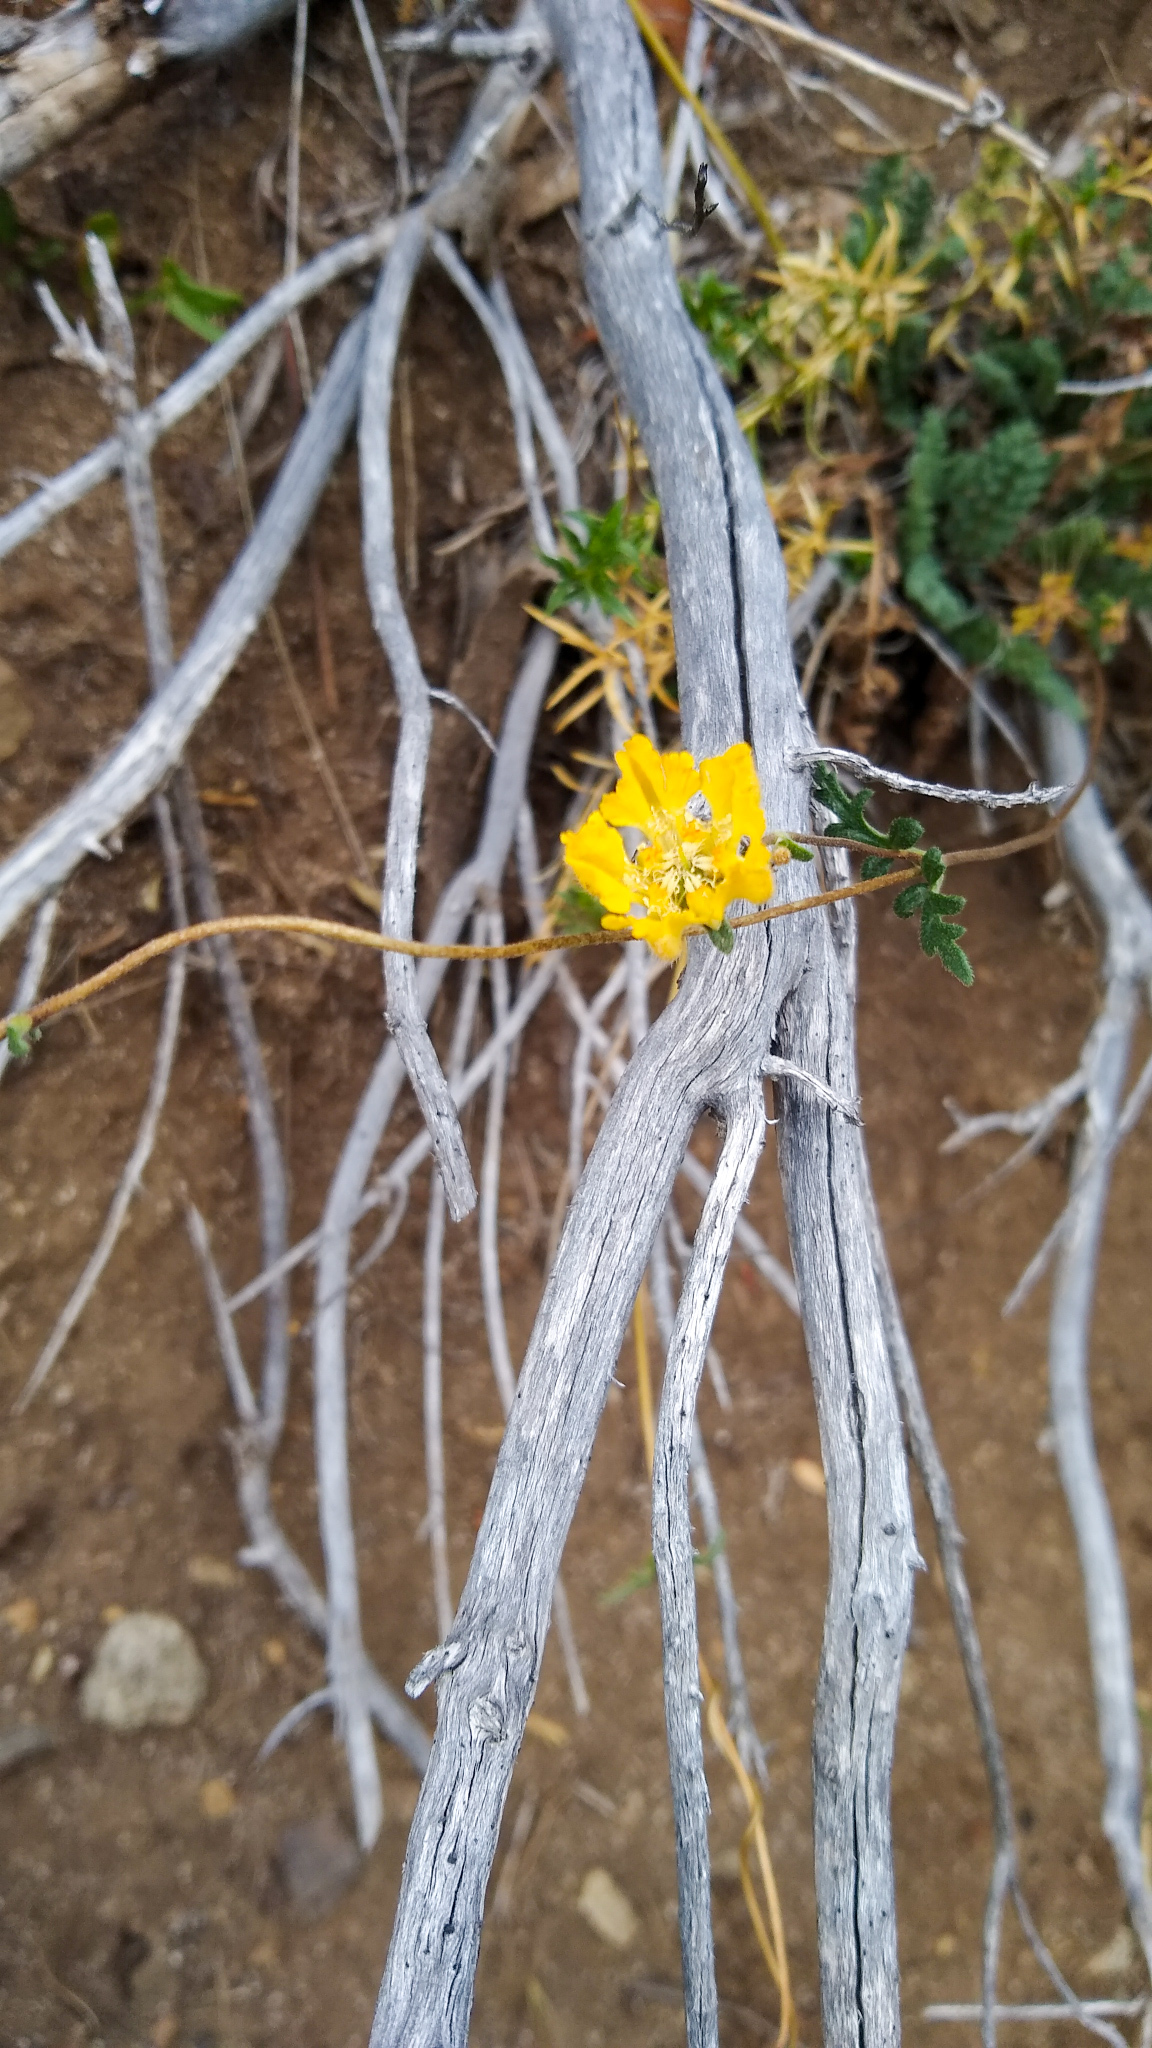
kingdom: Plantae
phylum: Tracheophyta
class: Magnoliopsida
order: Cornales
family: Loasaceae
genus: Pinnasa
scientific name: Pinnasa bergii
